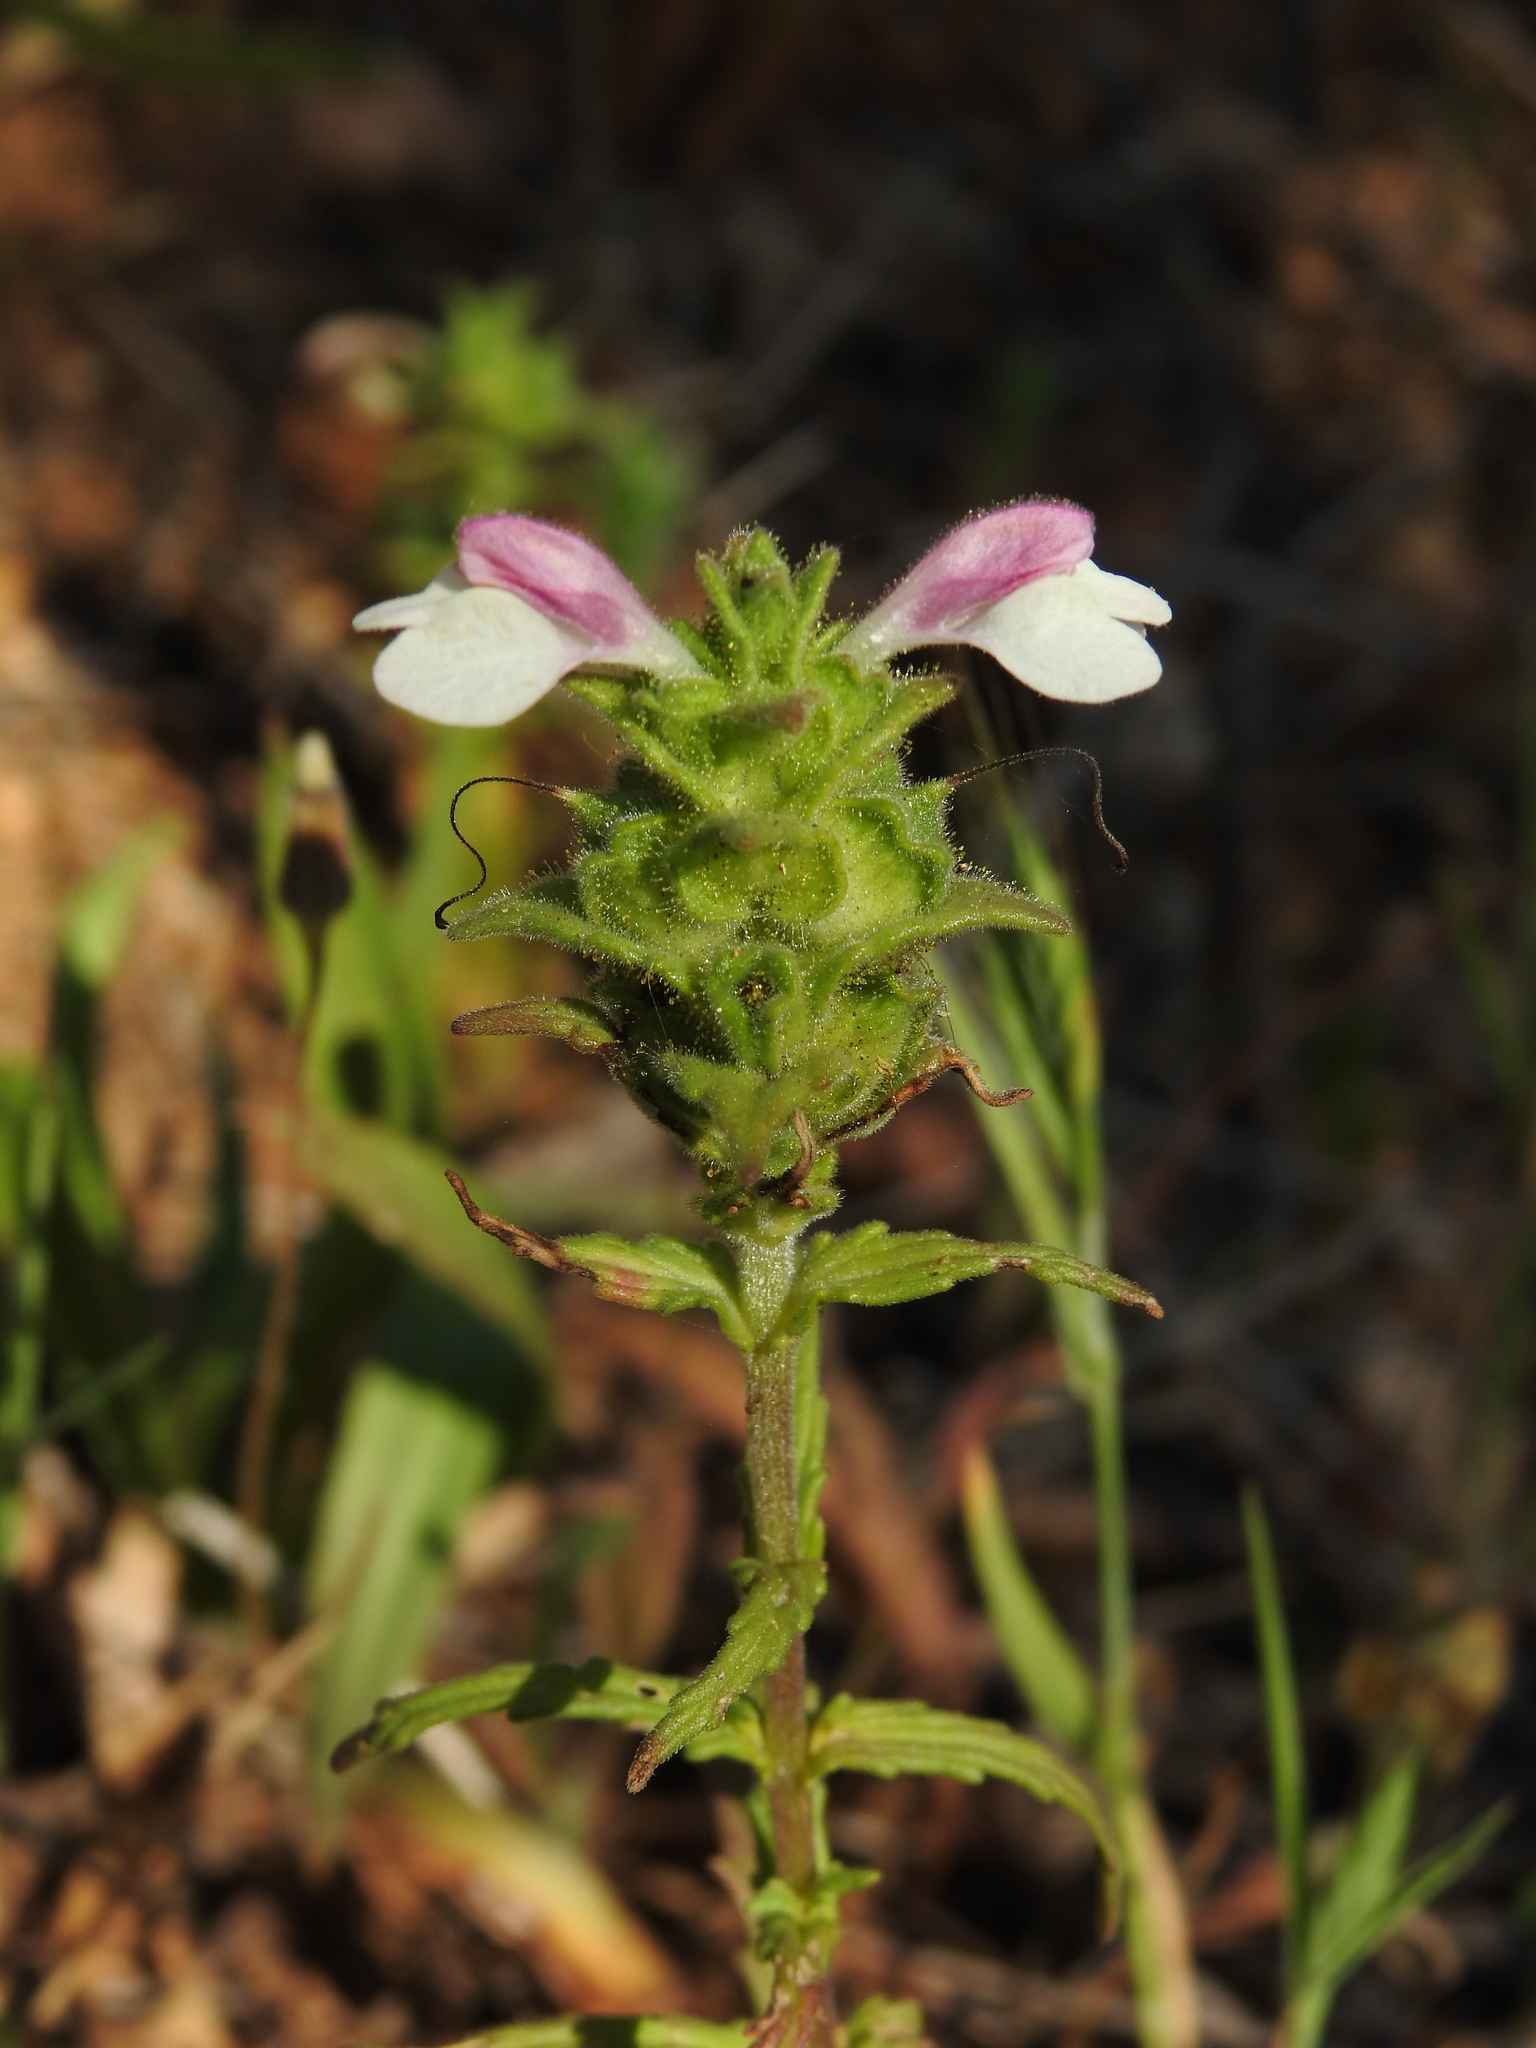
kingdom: Plantae
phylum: Tracheophyta
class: Magnoliopsida
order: Lamiales
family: Orobanchaceae
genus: Bellardia
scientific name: Bellardia trixago
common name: Mediterranean lineseed
